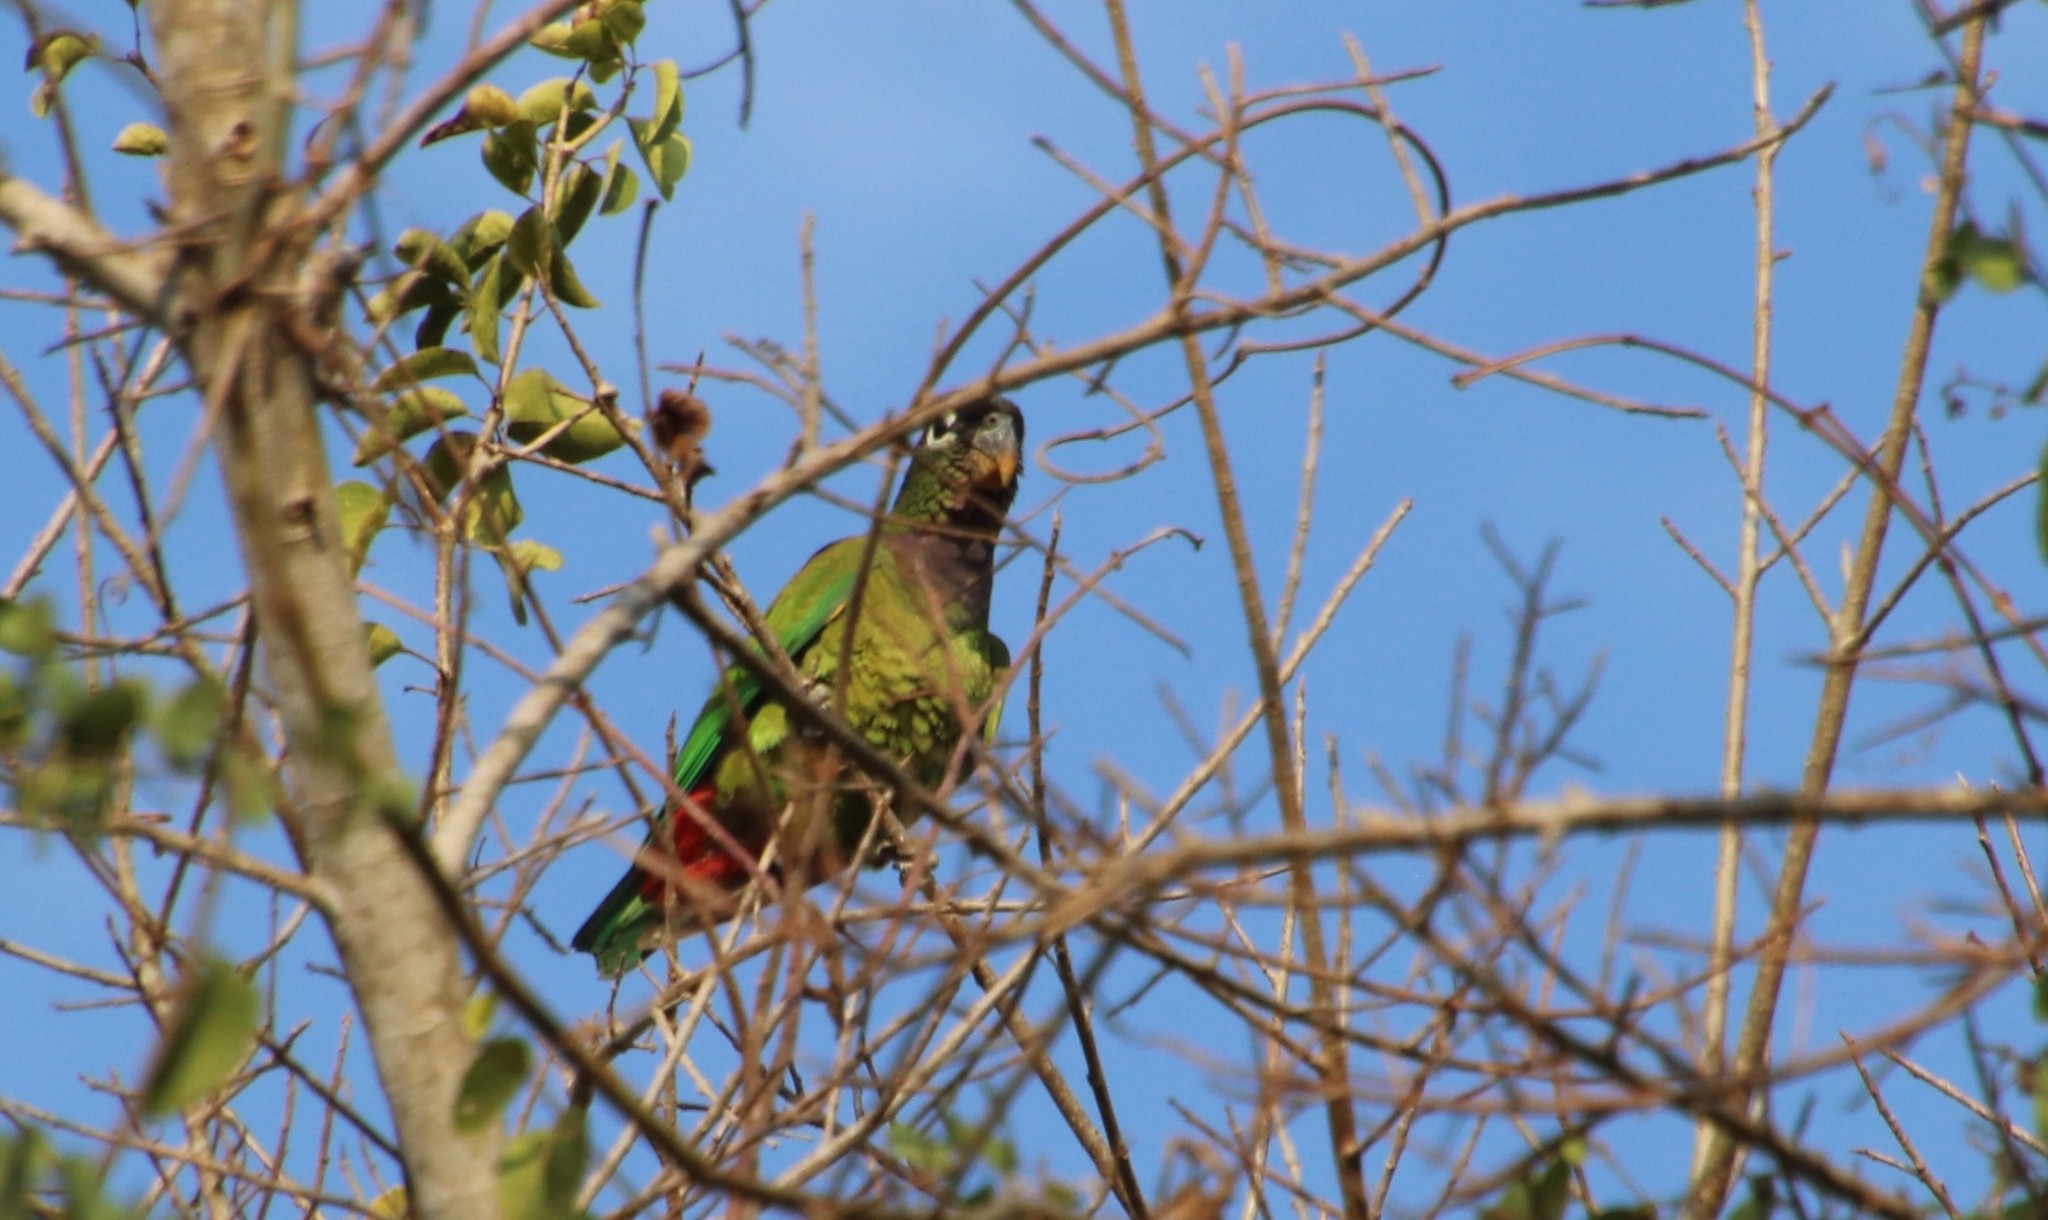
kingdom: Animalia
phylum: Chordata
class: Aves
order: Psittaciformes
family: Psittacidae
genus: Pionus
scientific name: Pionus maximiliani
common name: Scaly-headed parrot
